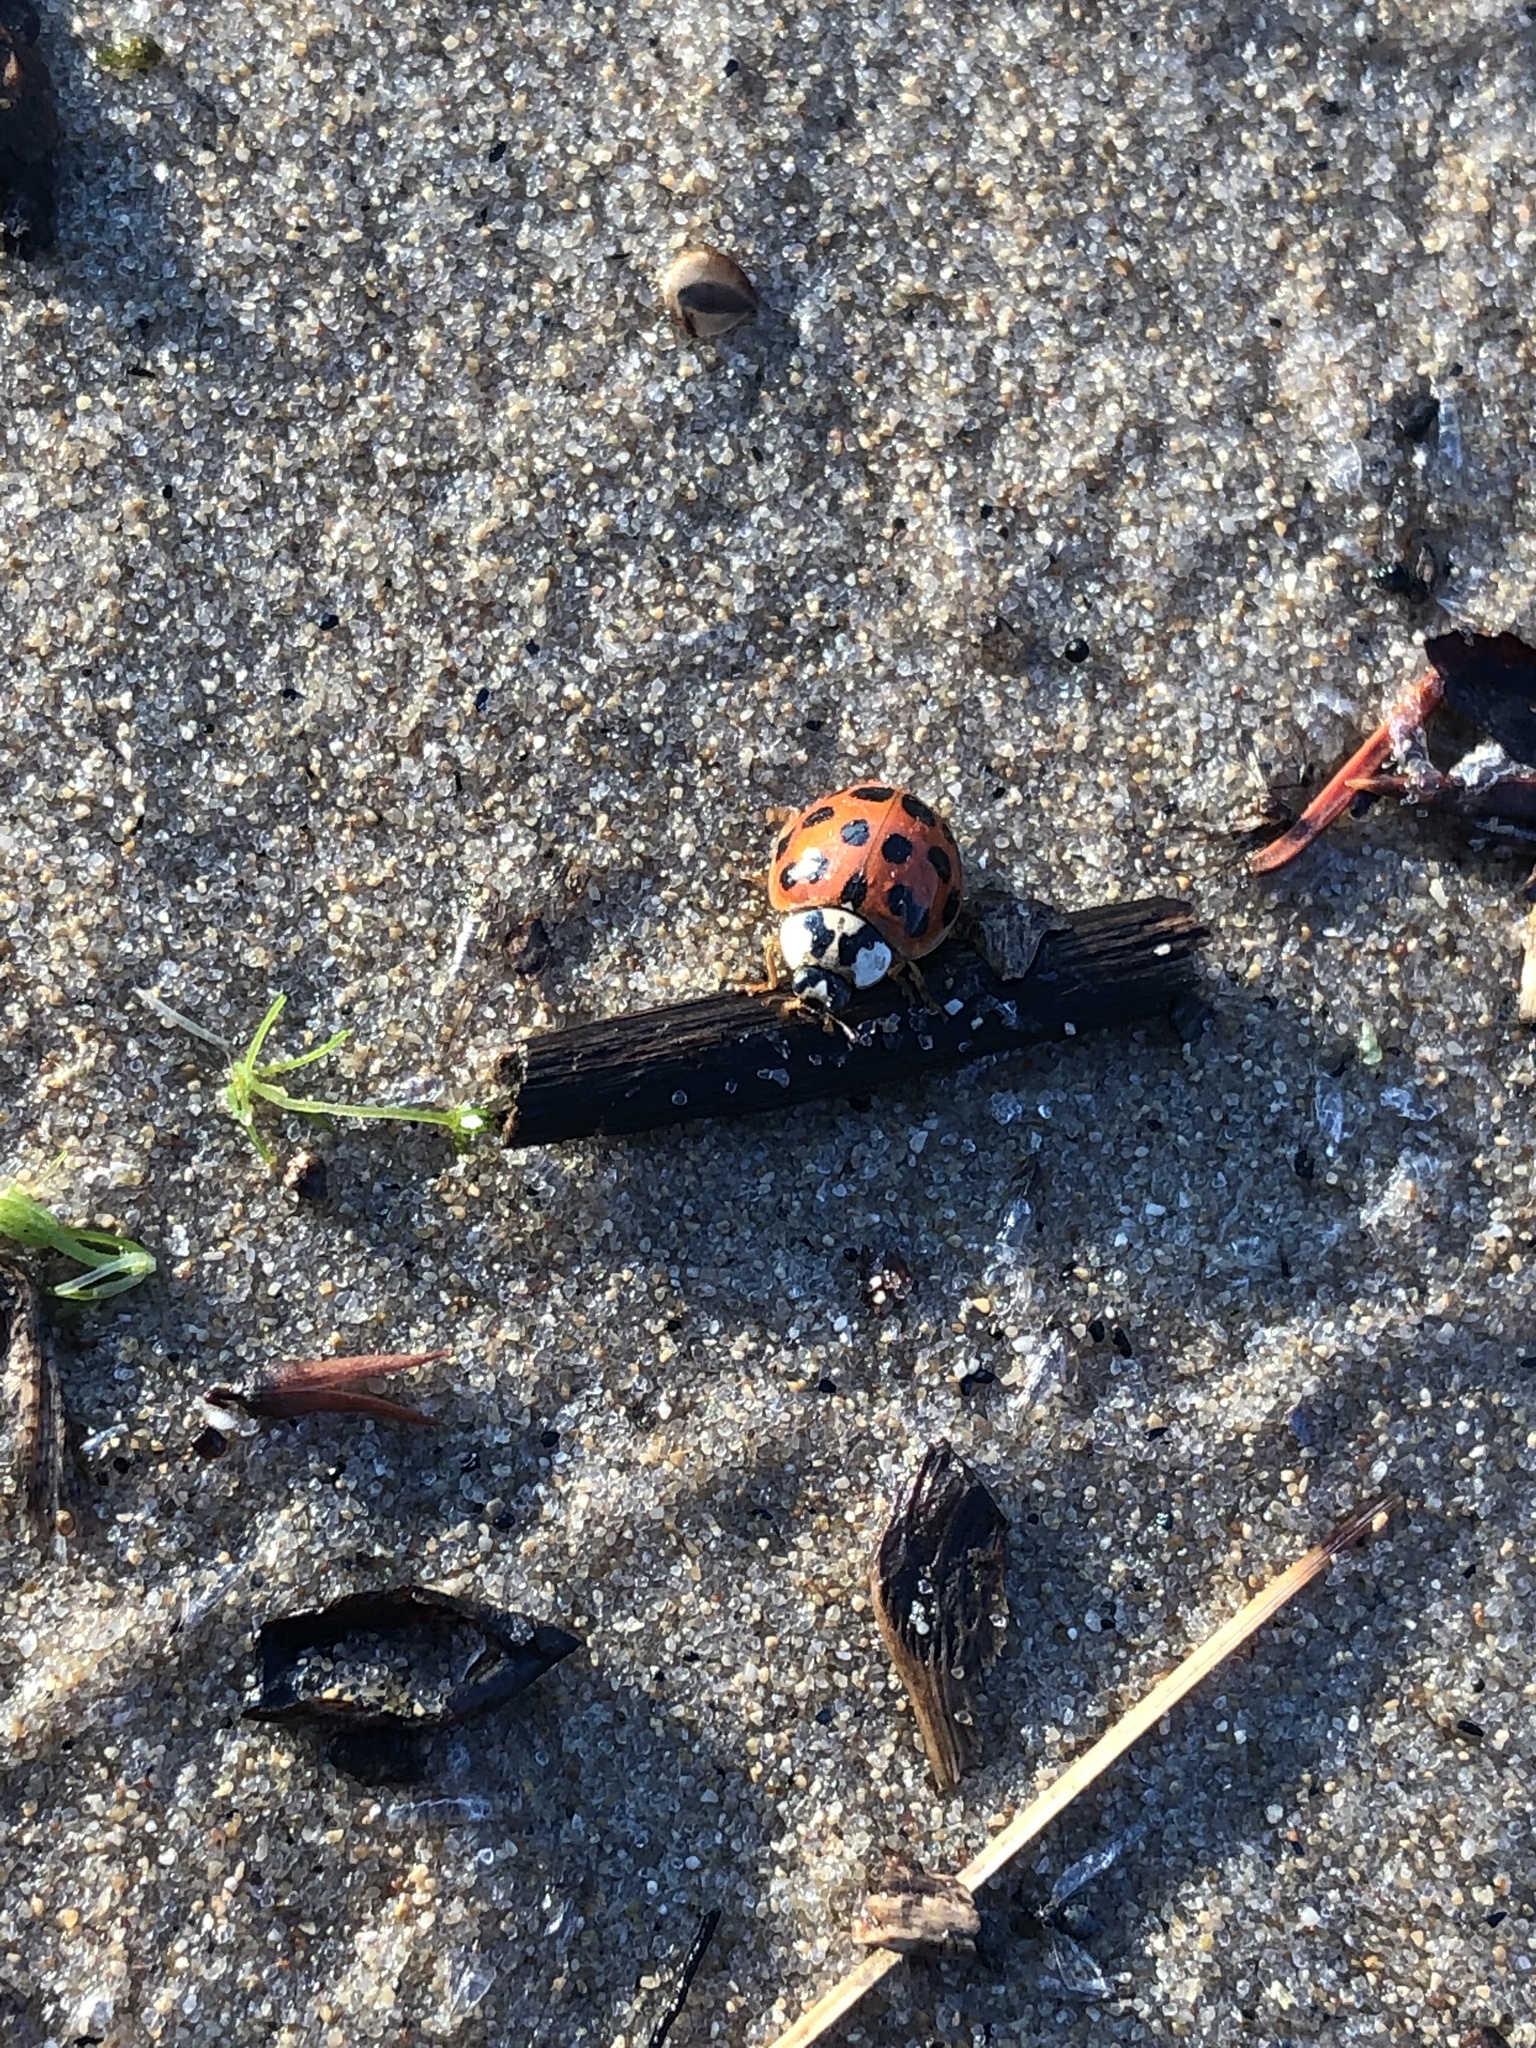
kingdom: Animalia
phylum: Arthropoda
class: Insecta
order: Coleoptera
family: Coccinellidae
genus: Harmonia
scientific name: Harmonia axyridis
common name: Harlequin ladybird
